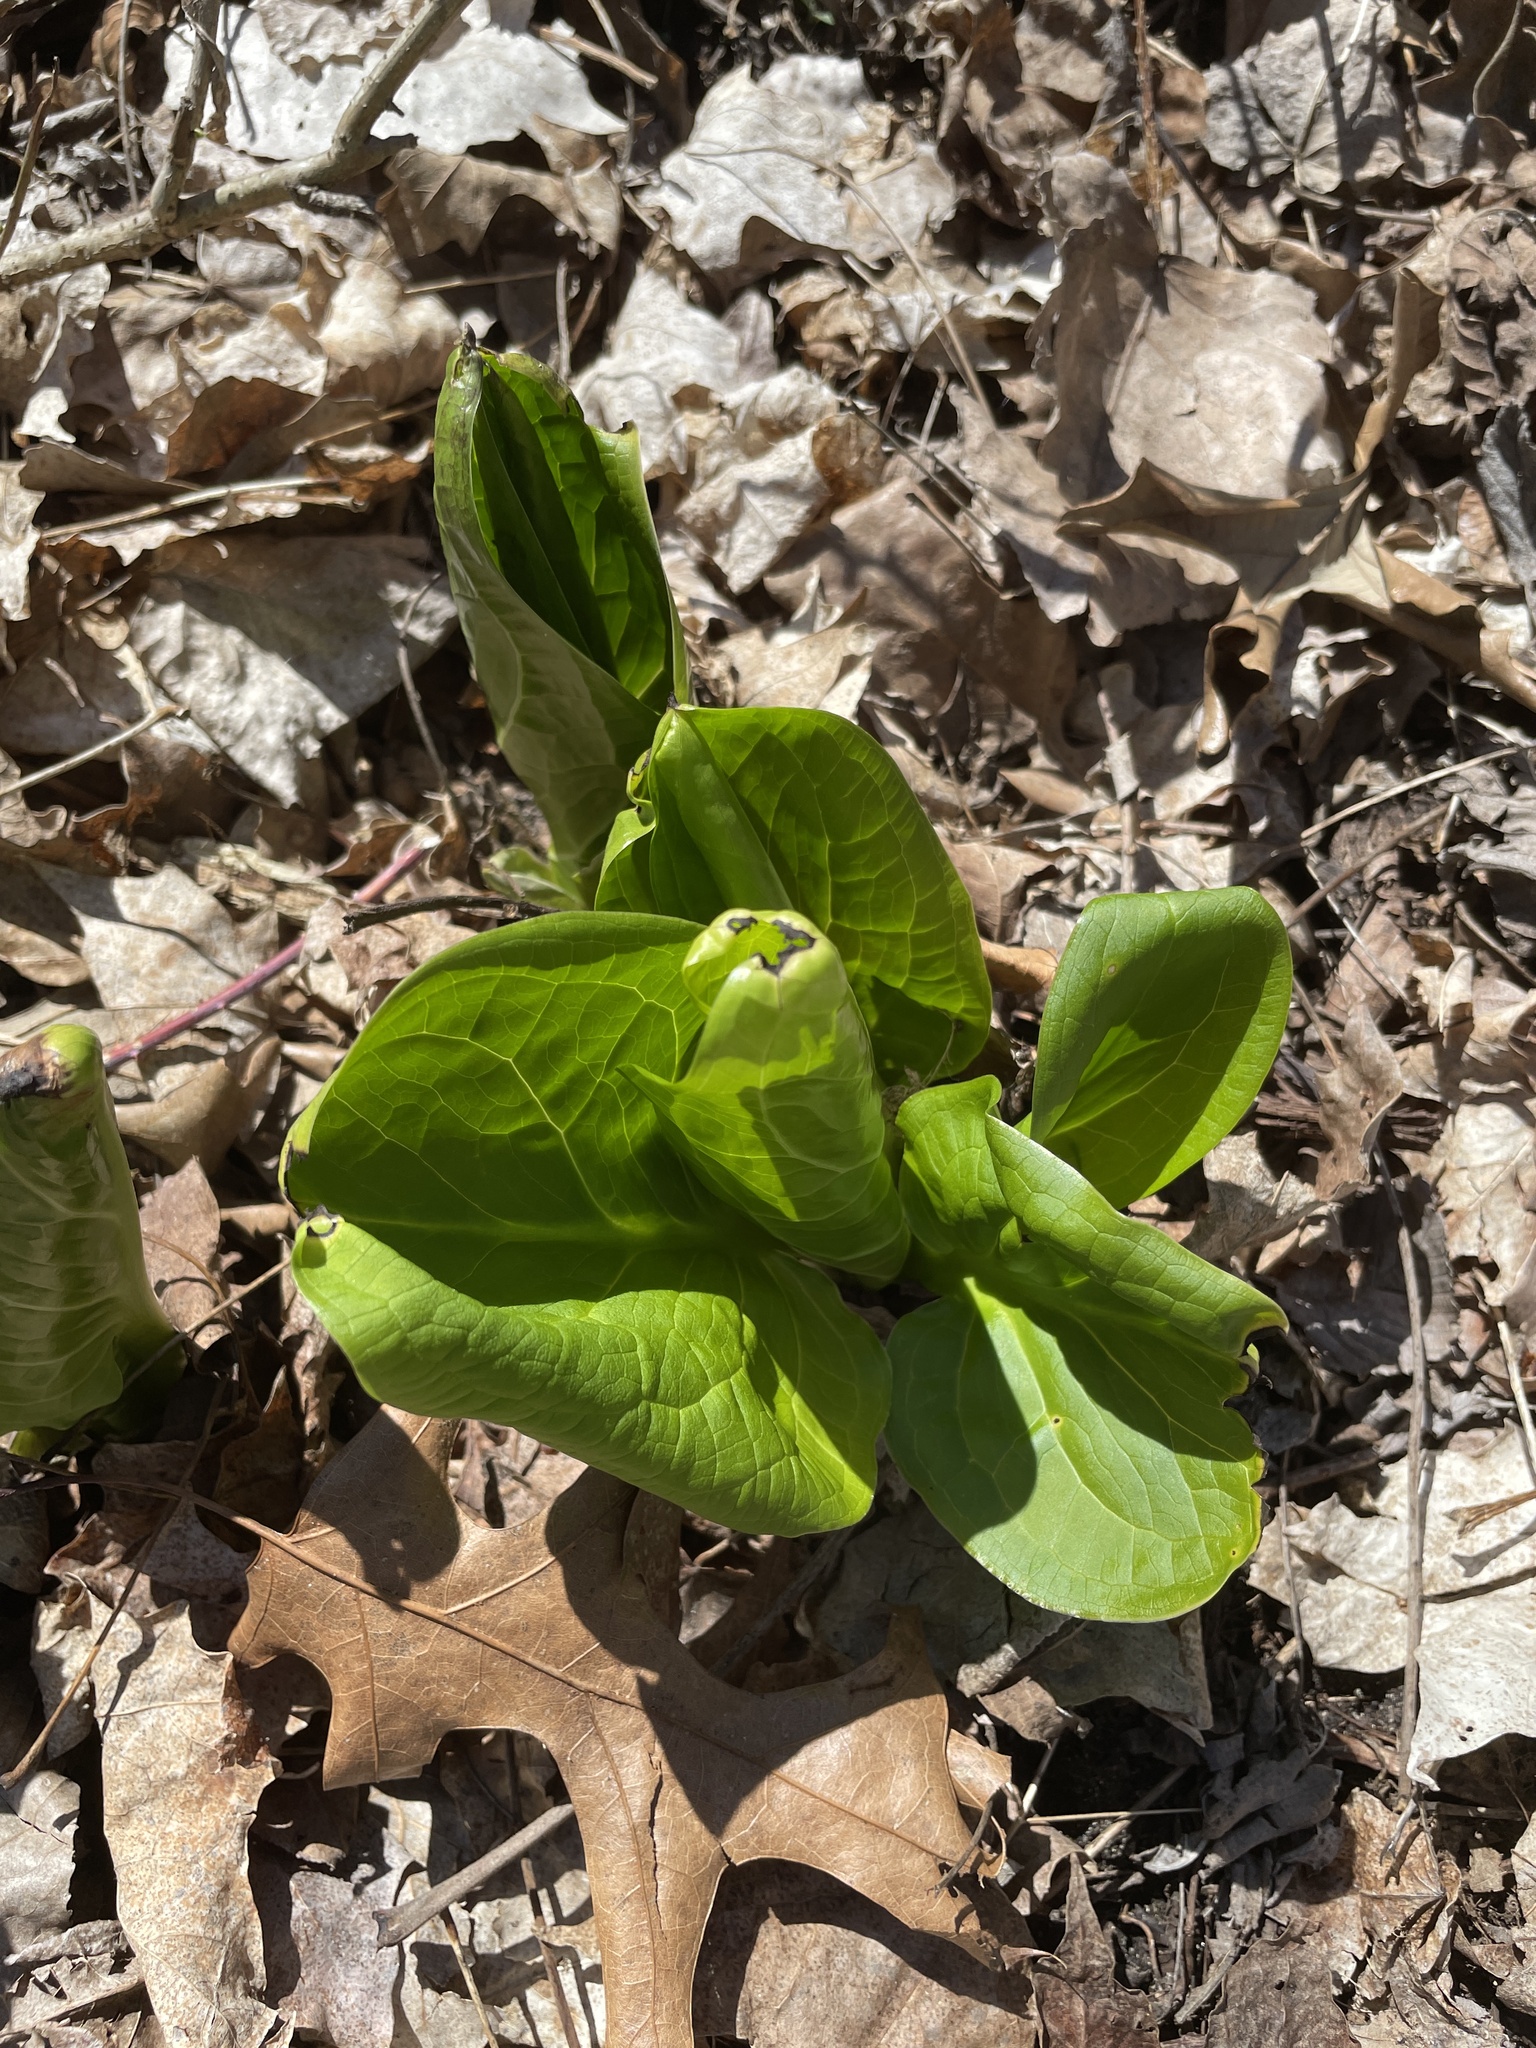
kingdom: Plantae
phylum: Tracheophyta
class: Liliopsida
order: Alismatales
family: Araceae
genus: Symplocarpus
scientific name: Symplocarpus foetidus
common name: Eastern skunk cabbage
